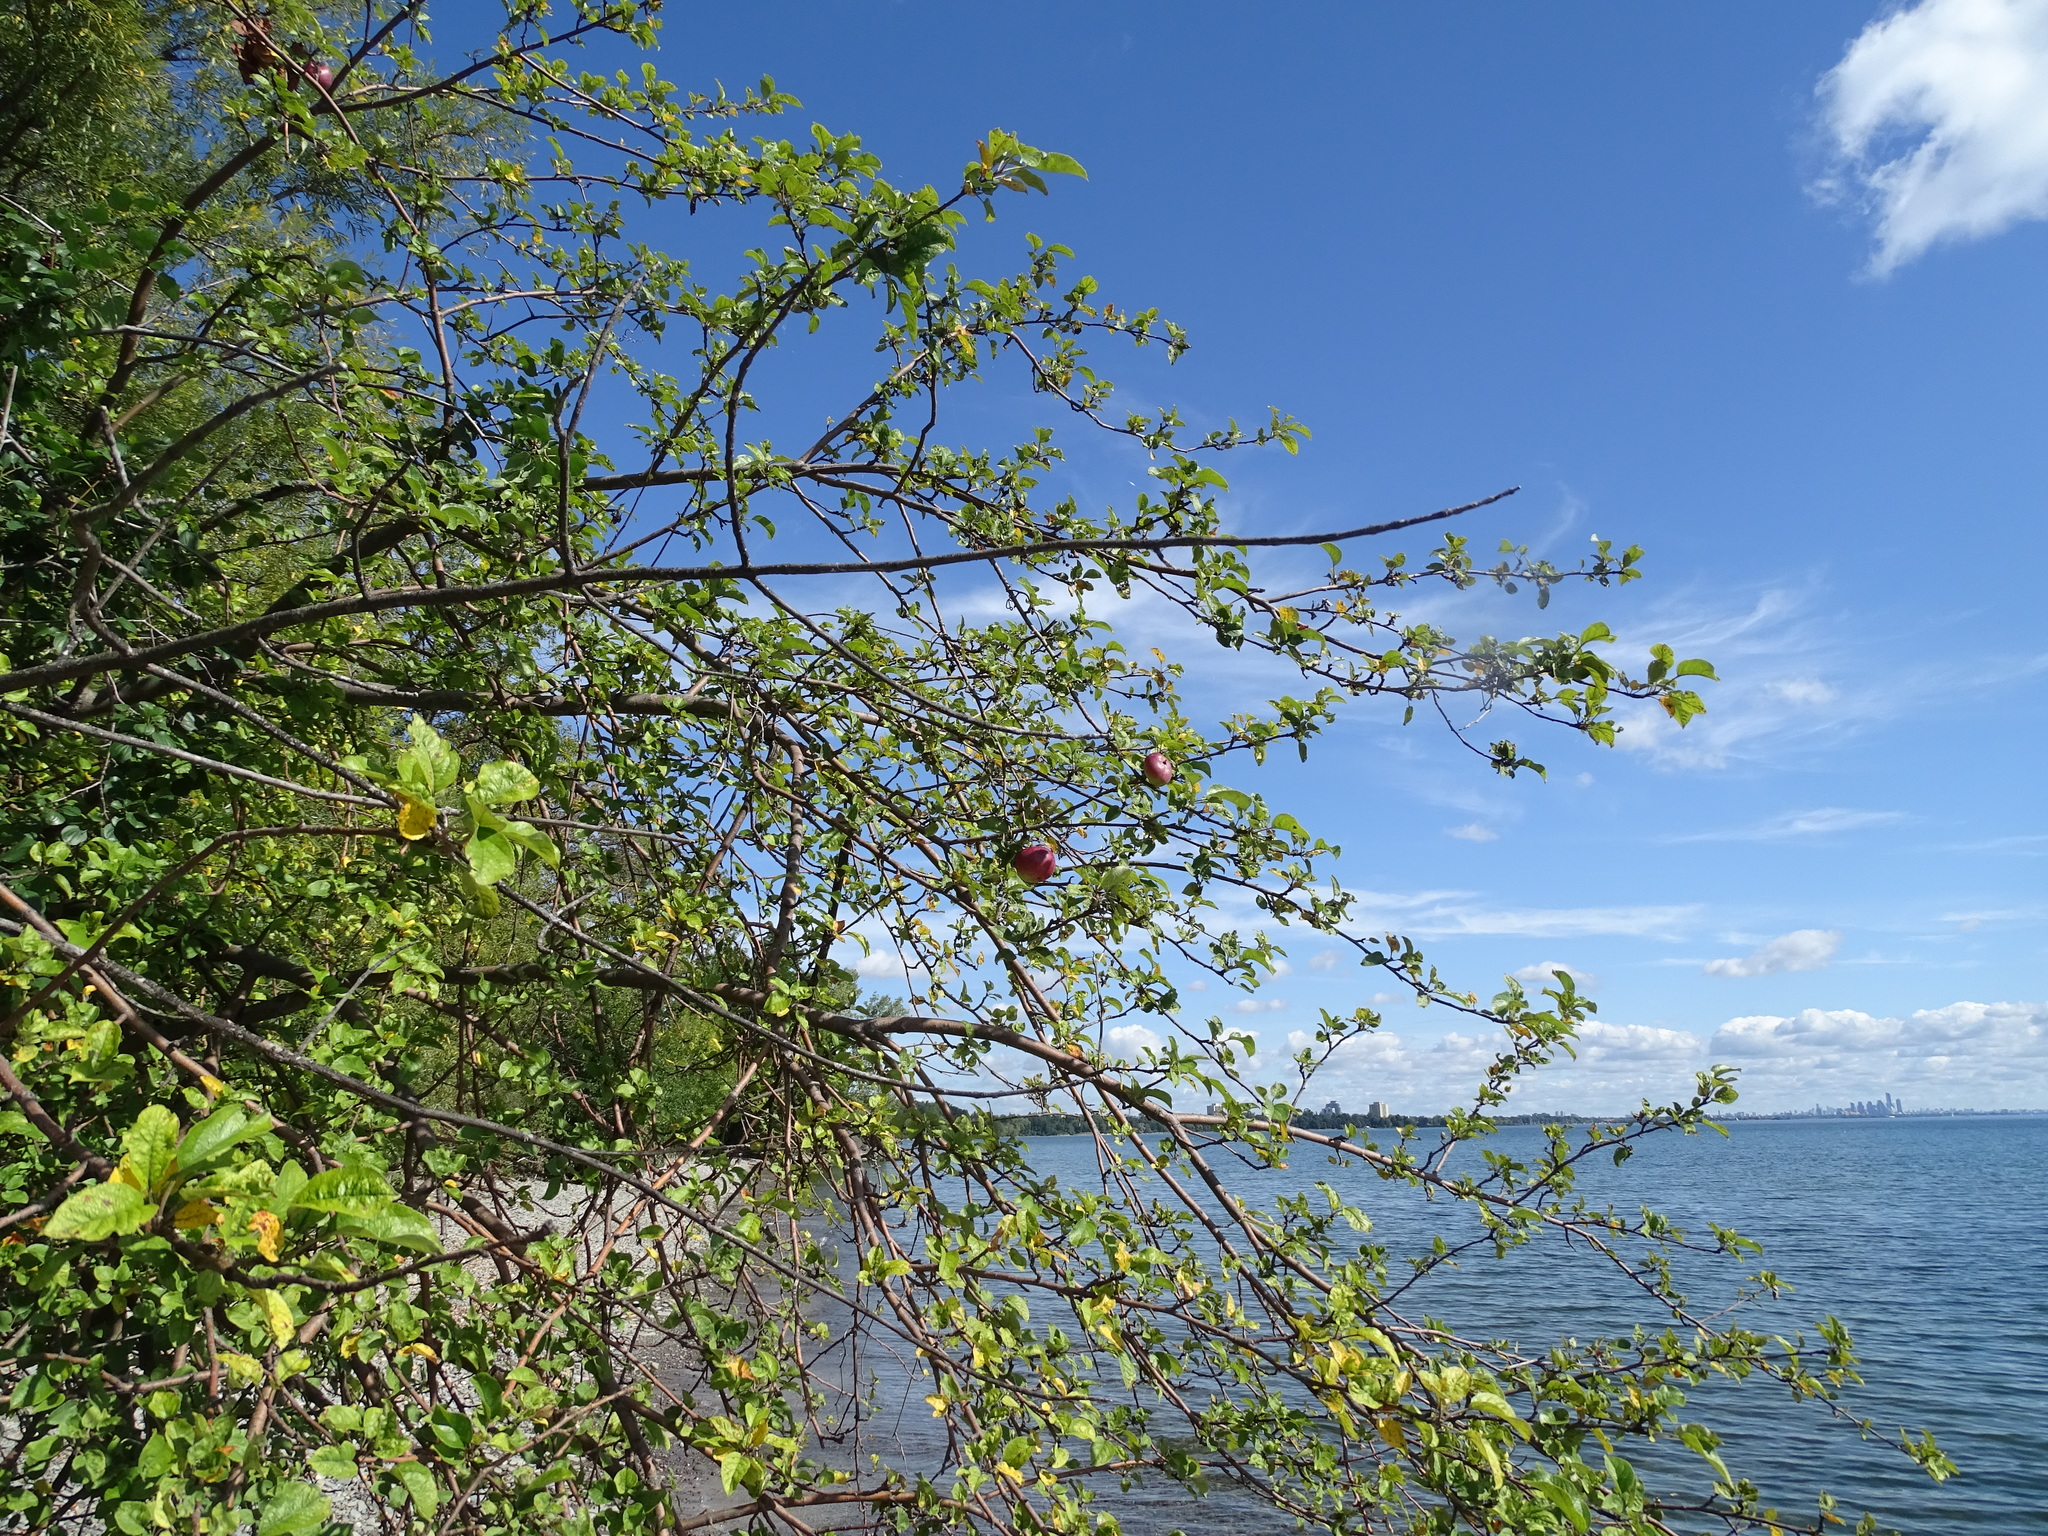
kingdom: Plantae
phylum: Tracheophyta
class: Magnoliopsida
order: Rosales
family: Rosaceae
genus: Malus
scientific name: Malus domestica
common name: Apple
